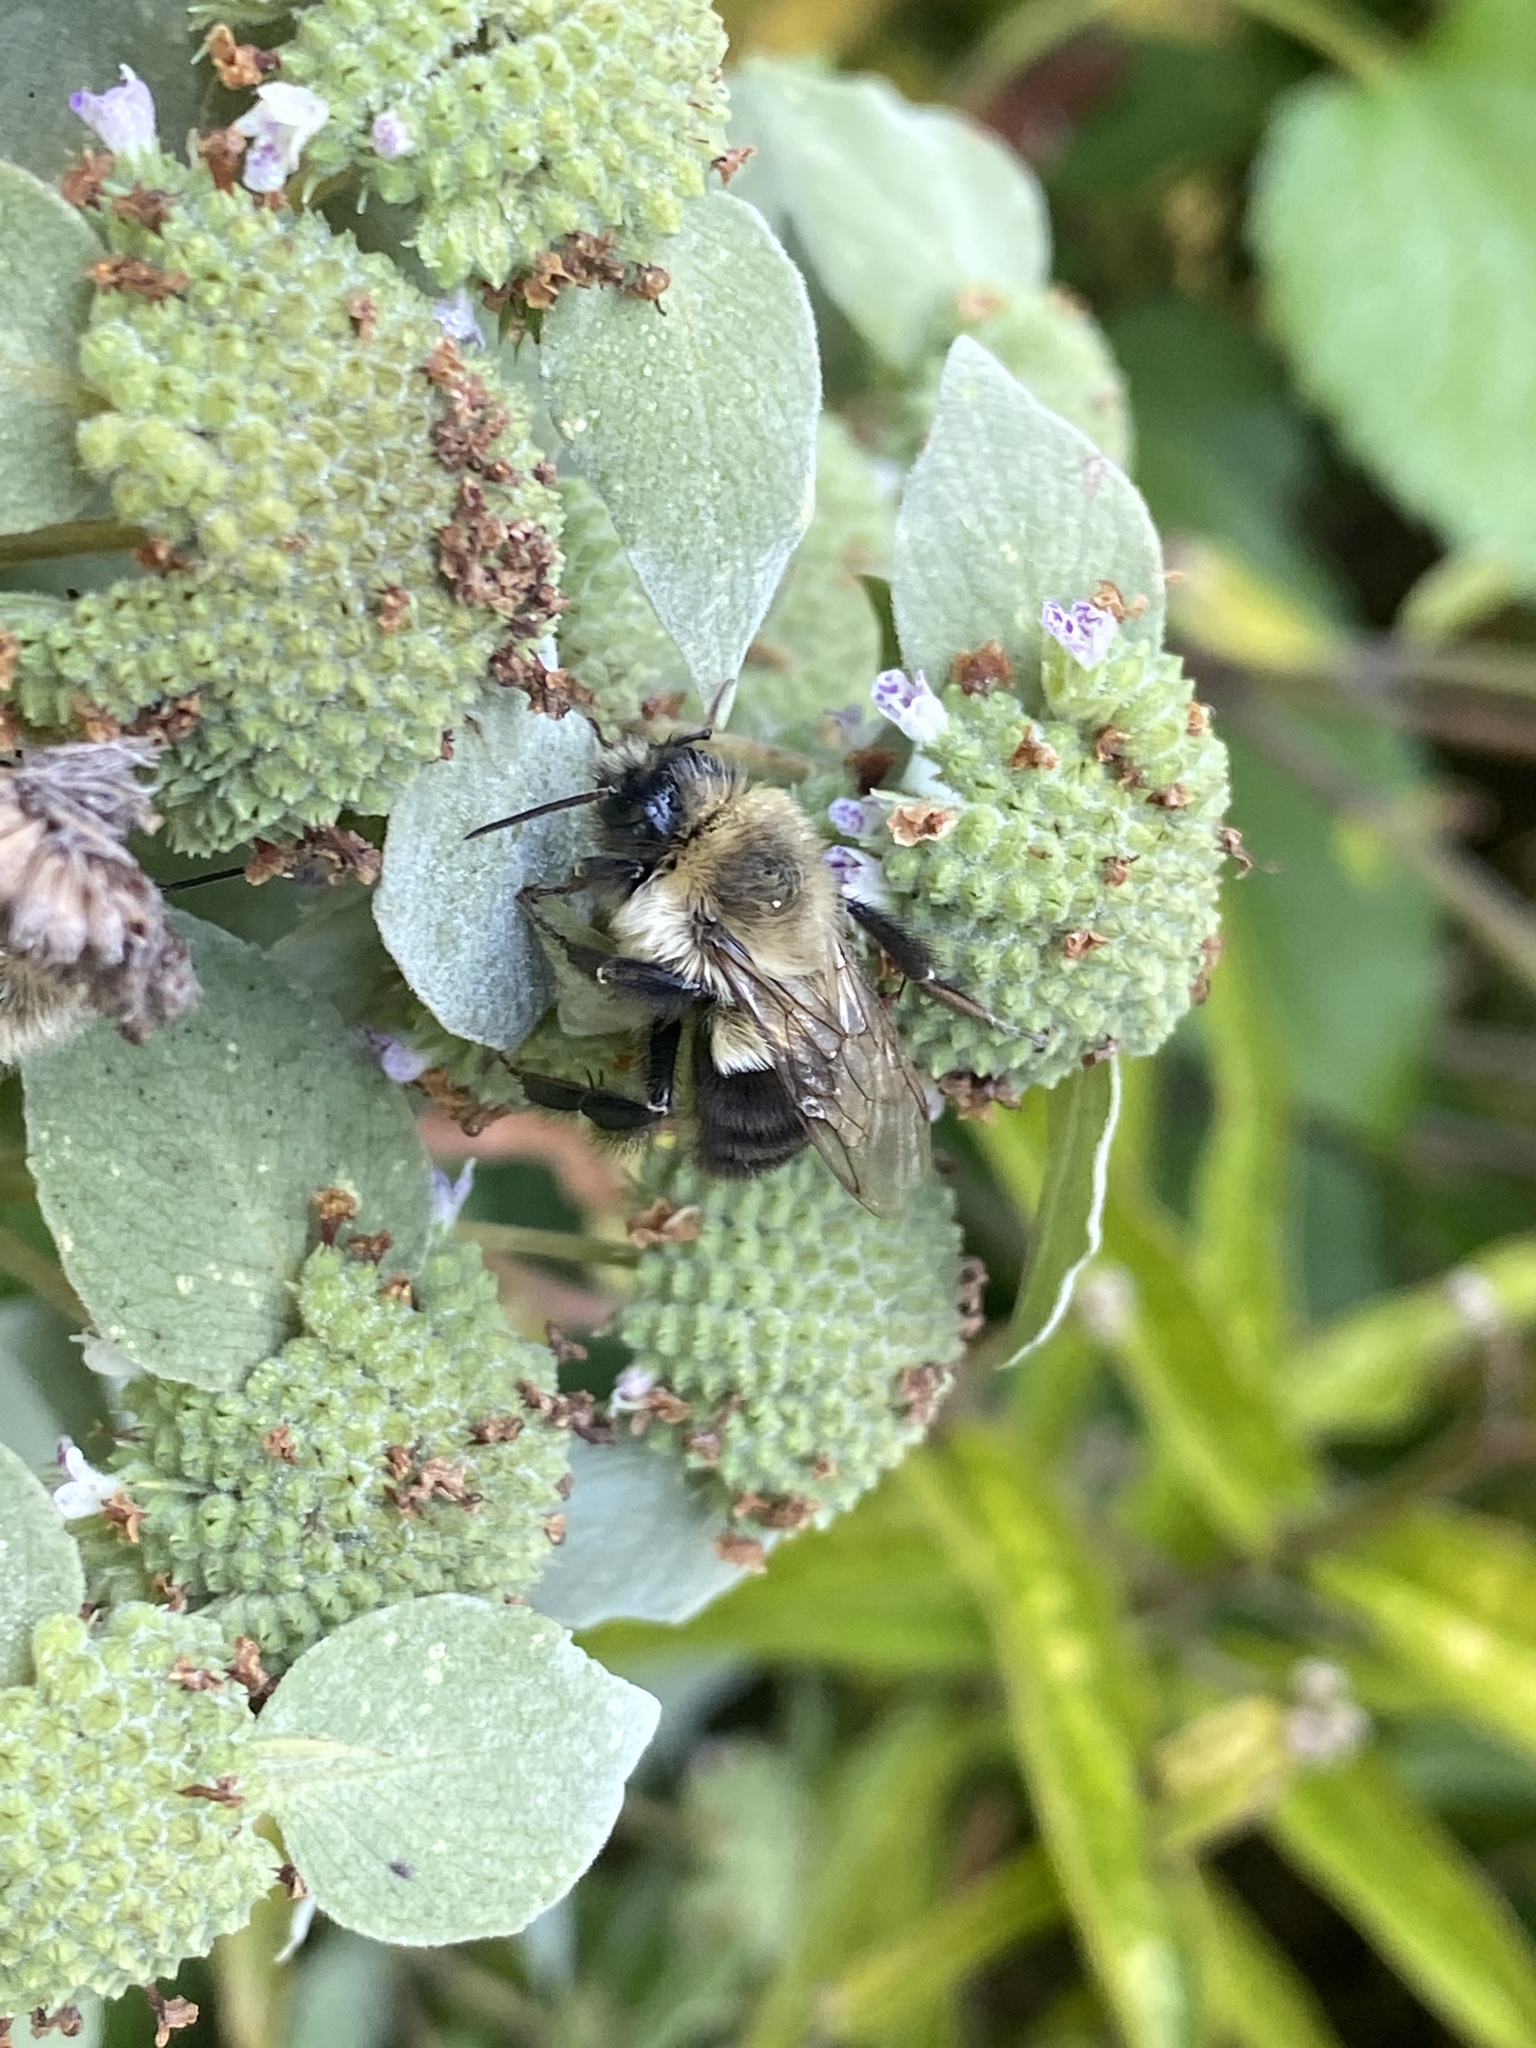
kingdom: Animalia
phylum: Arthropoda
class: Insecta
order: Hymenoptera
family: Apidae
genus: Bombus
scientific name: Bombus impatiens
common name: Common eastern bumble bee
